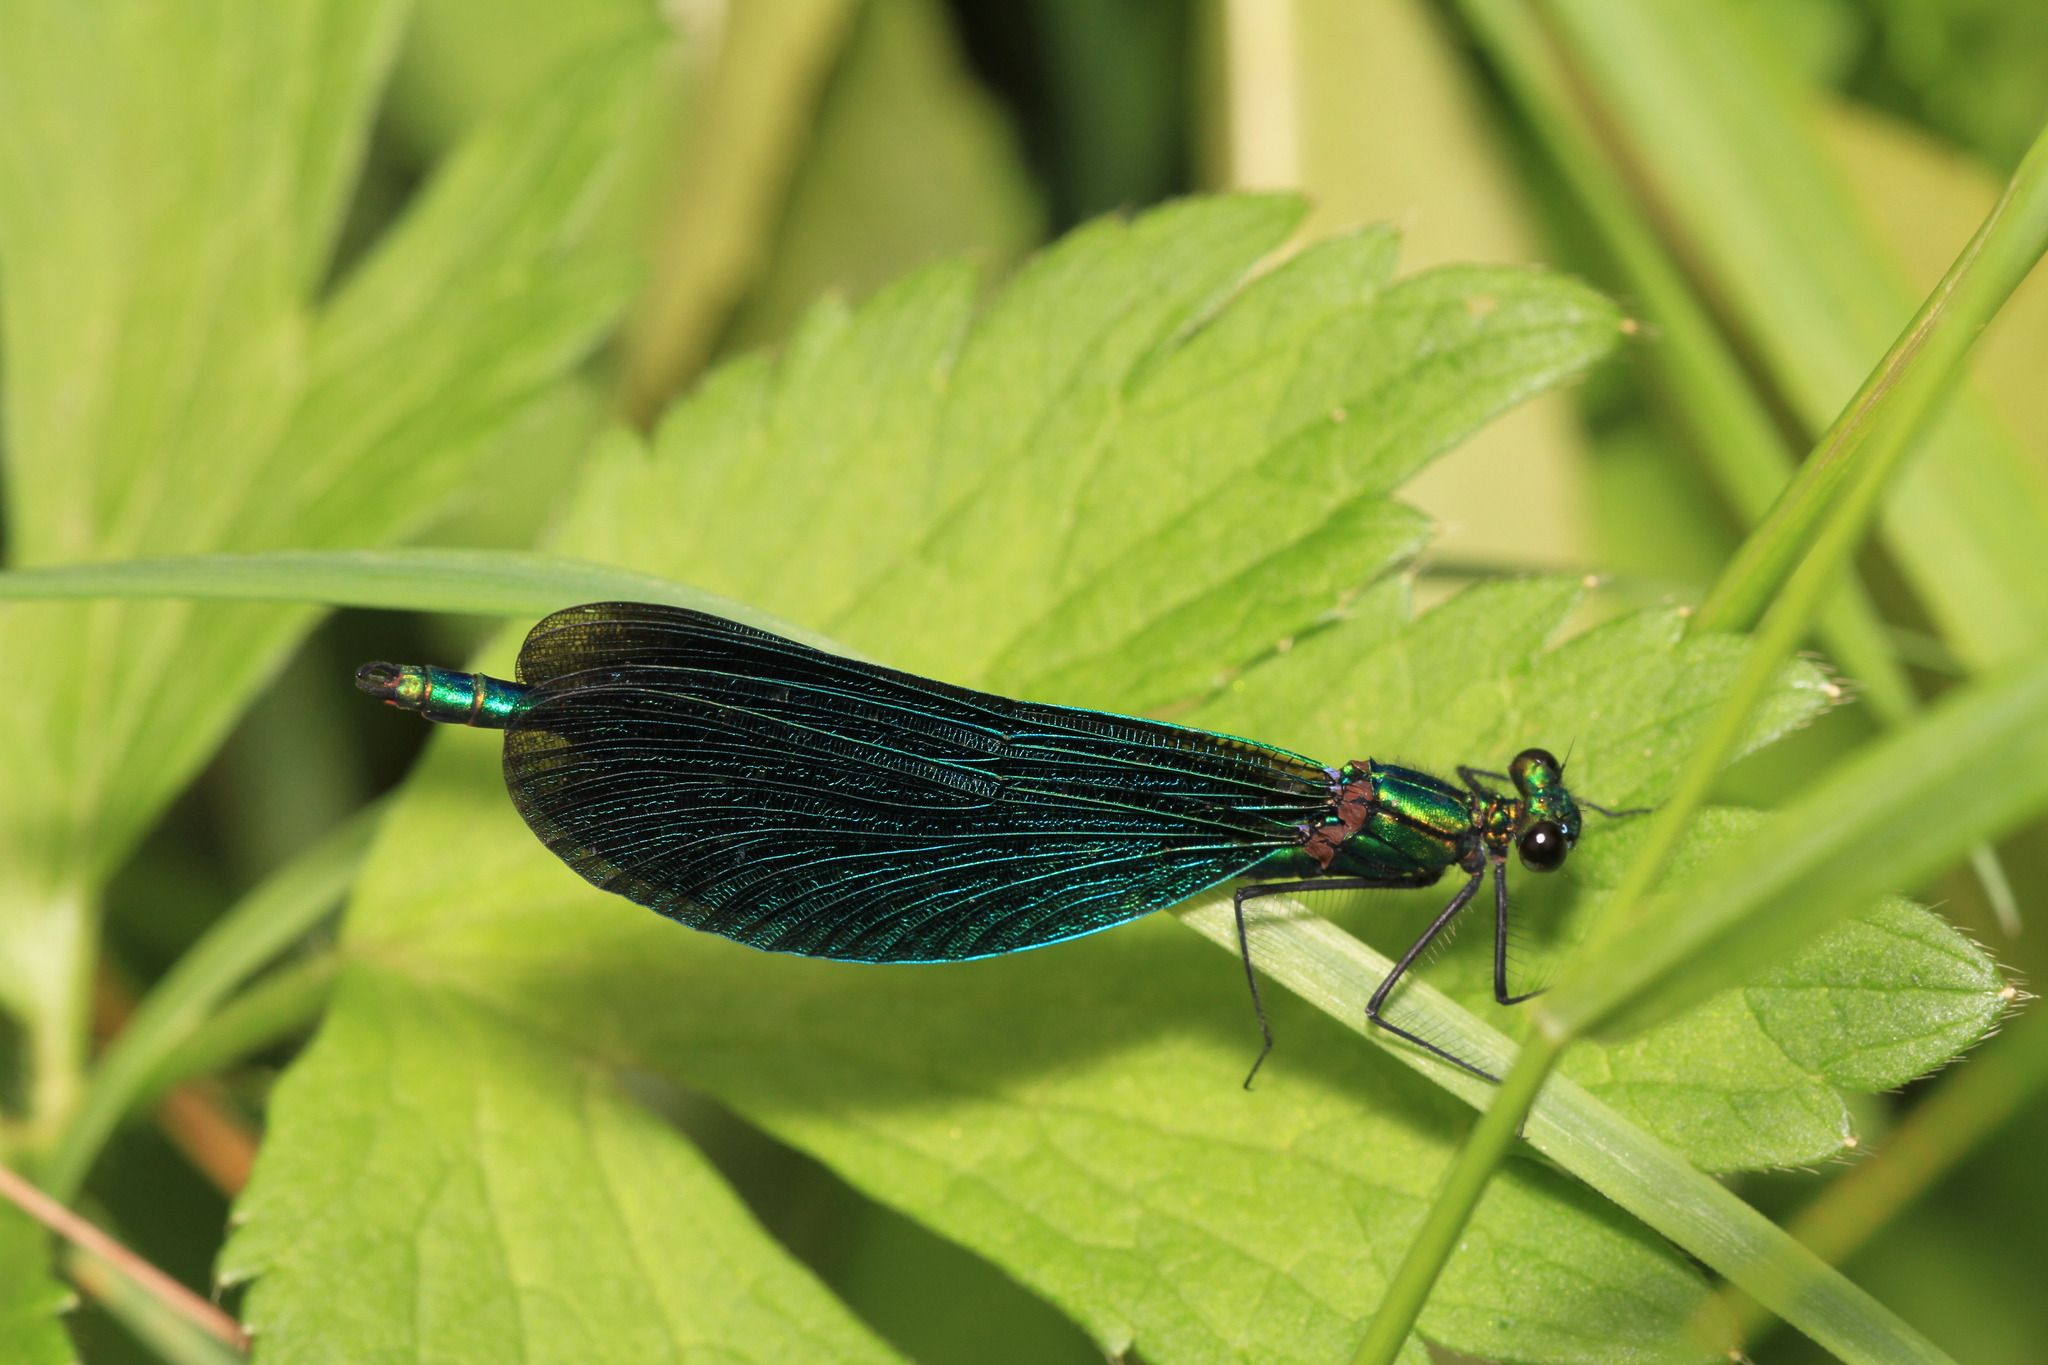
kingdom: Animalia
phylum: Arthropoda
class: Insecta
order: Odonata
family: Calopterygidae
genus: Calopteryx
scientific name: Calopteryx virgo
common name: Beautiful demoiselle
